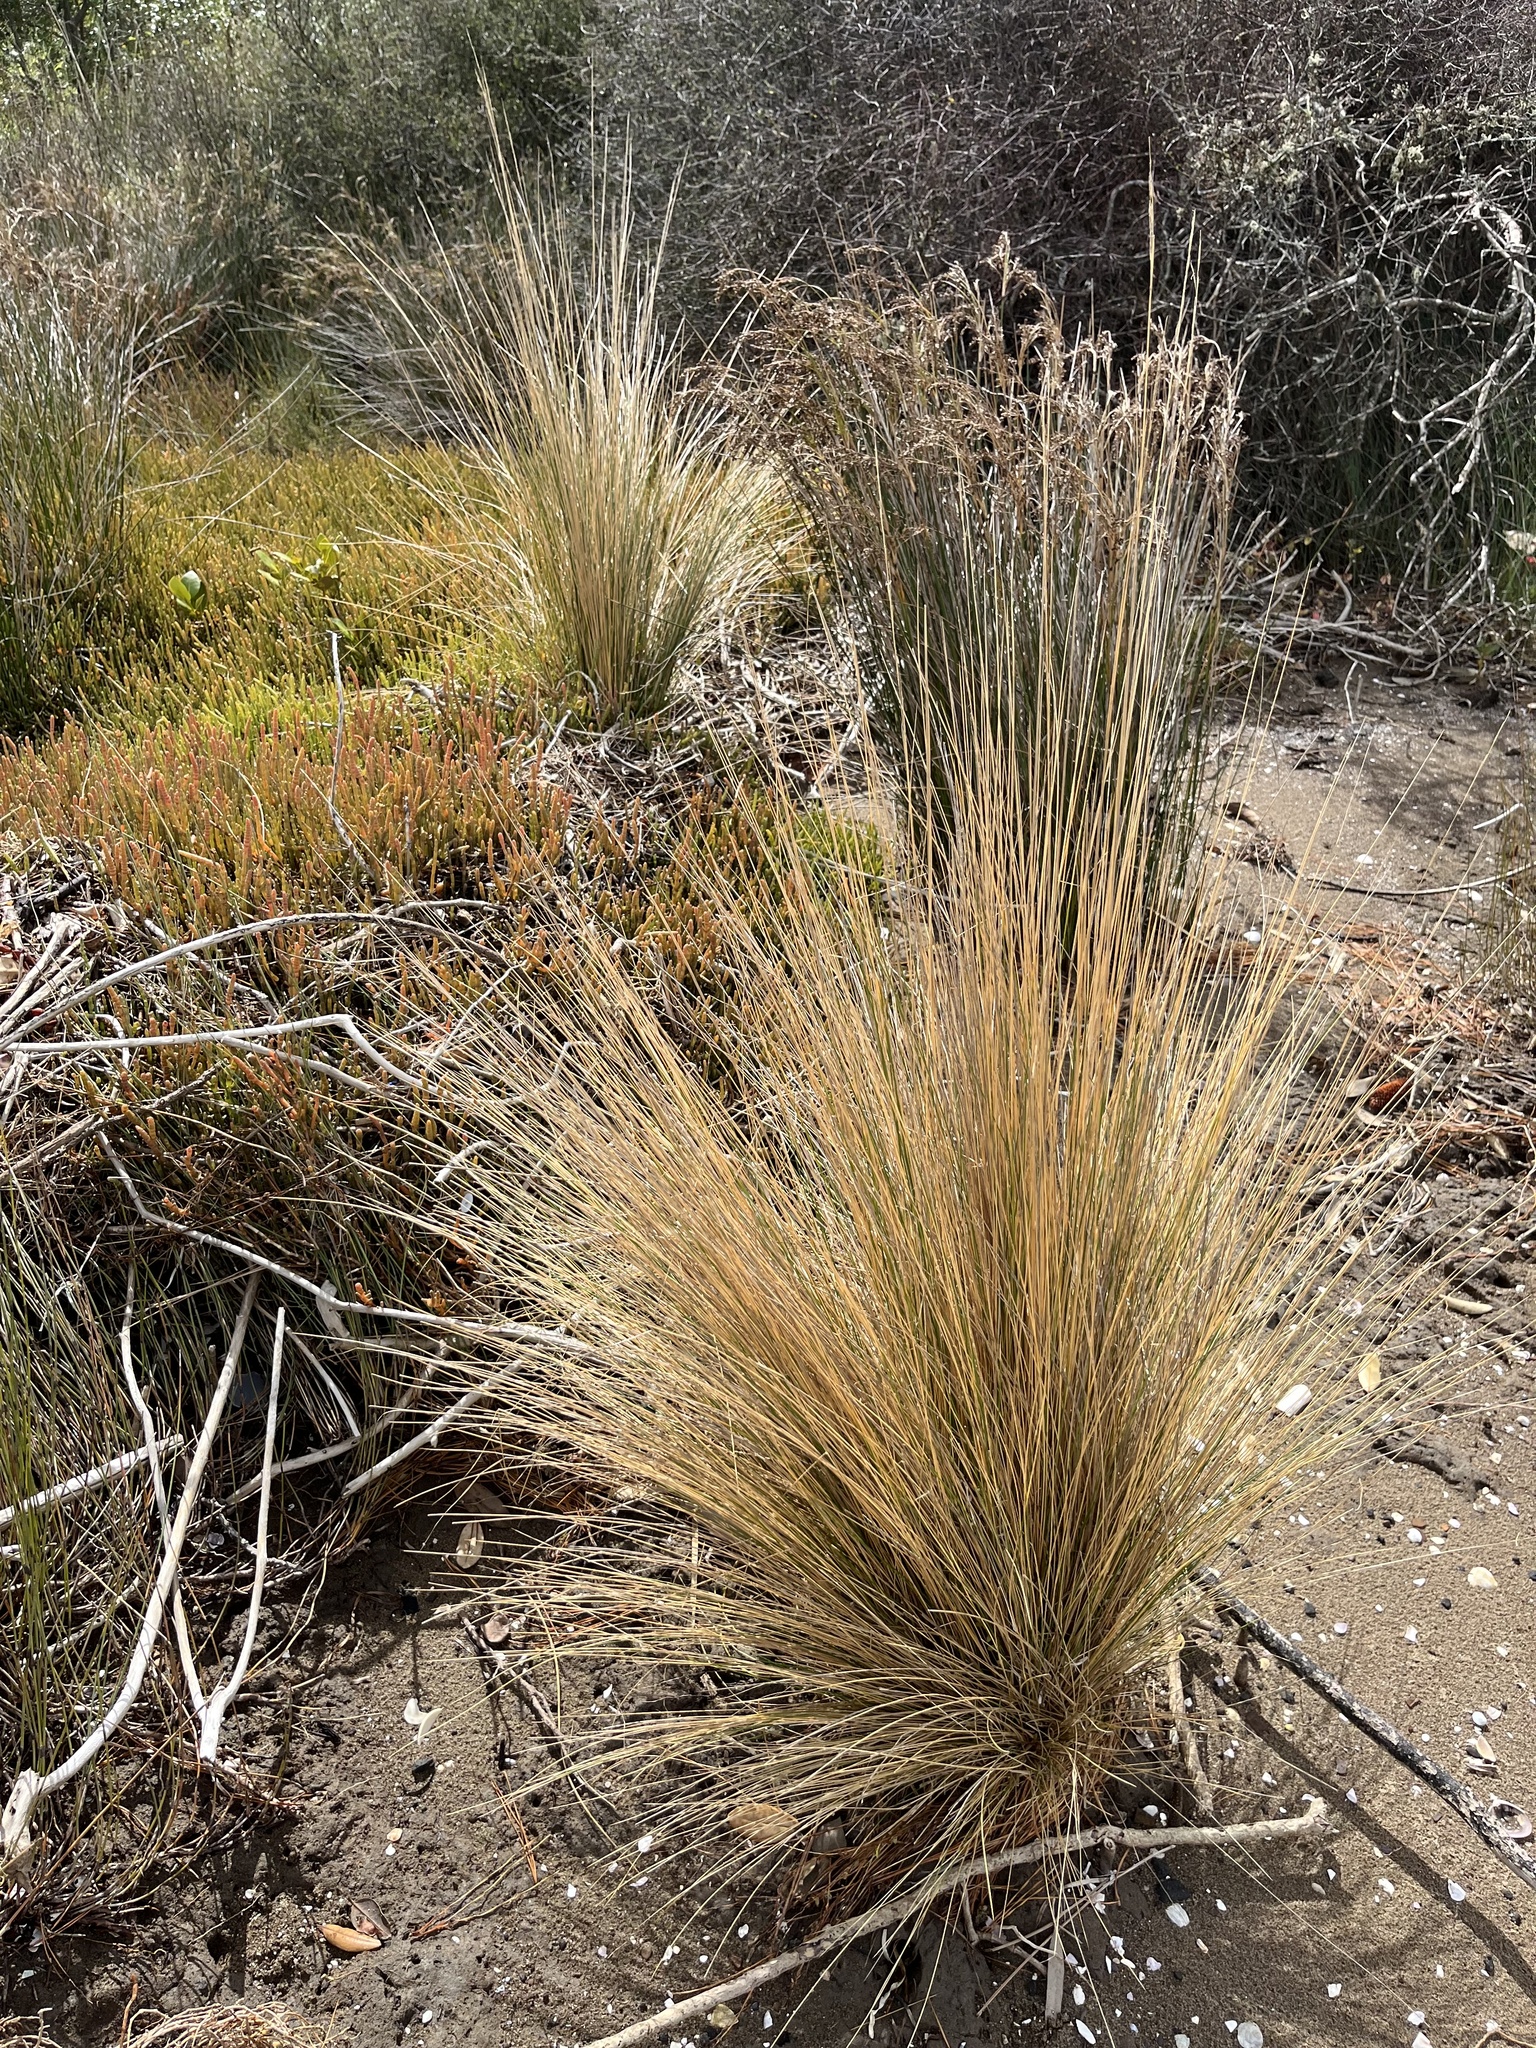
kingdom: Plantae
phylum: Tracheophyta
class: Liliopsida
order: Poales
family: Poaceae
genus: Austrostipa
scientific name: Austrostipa stipoides
